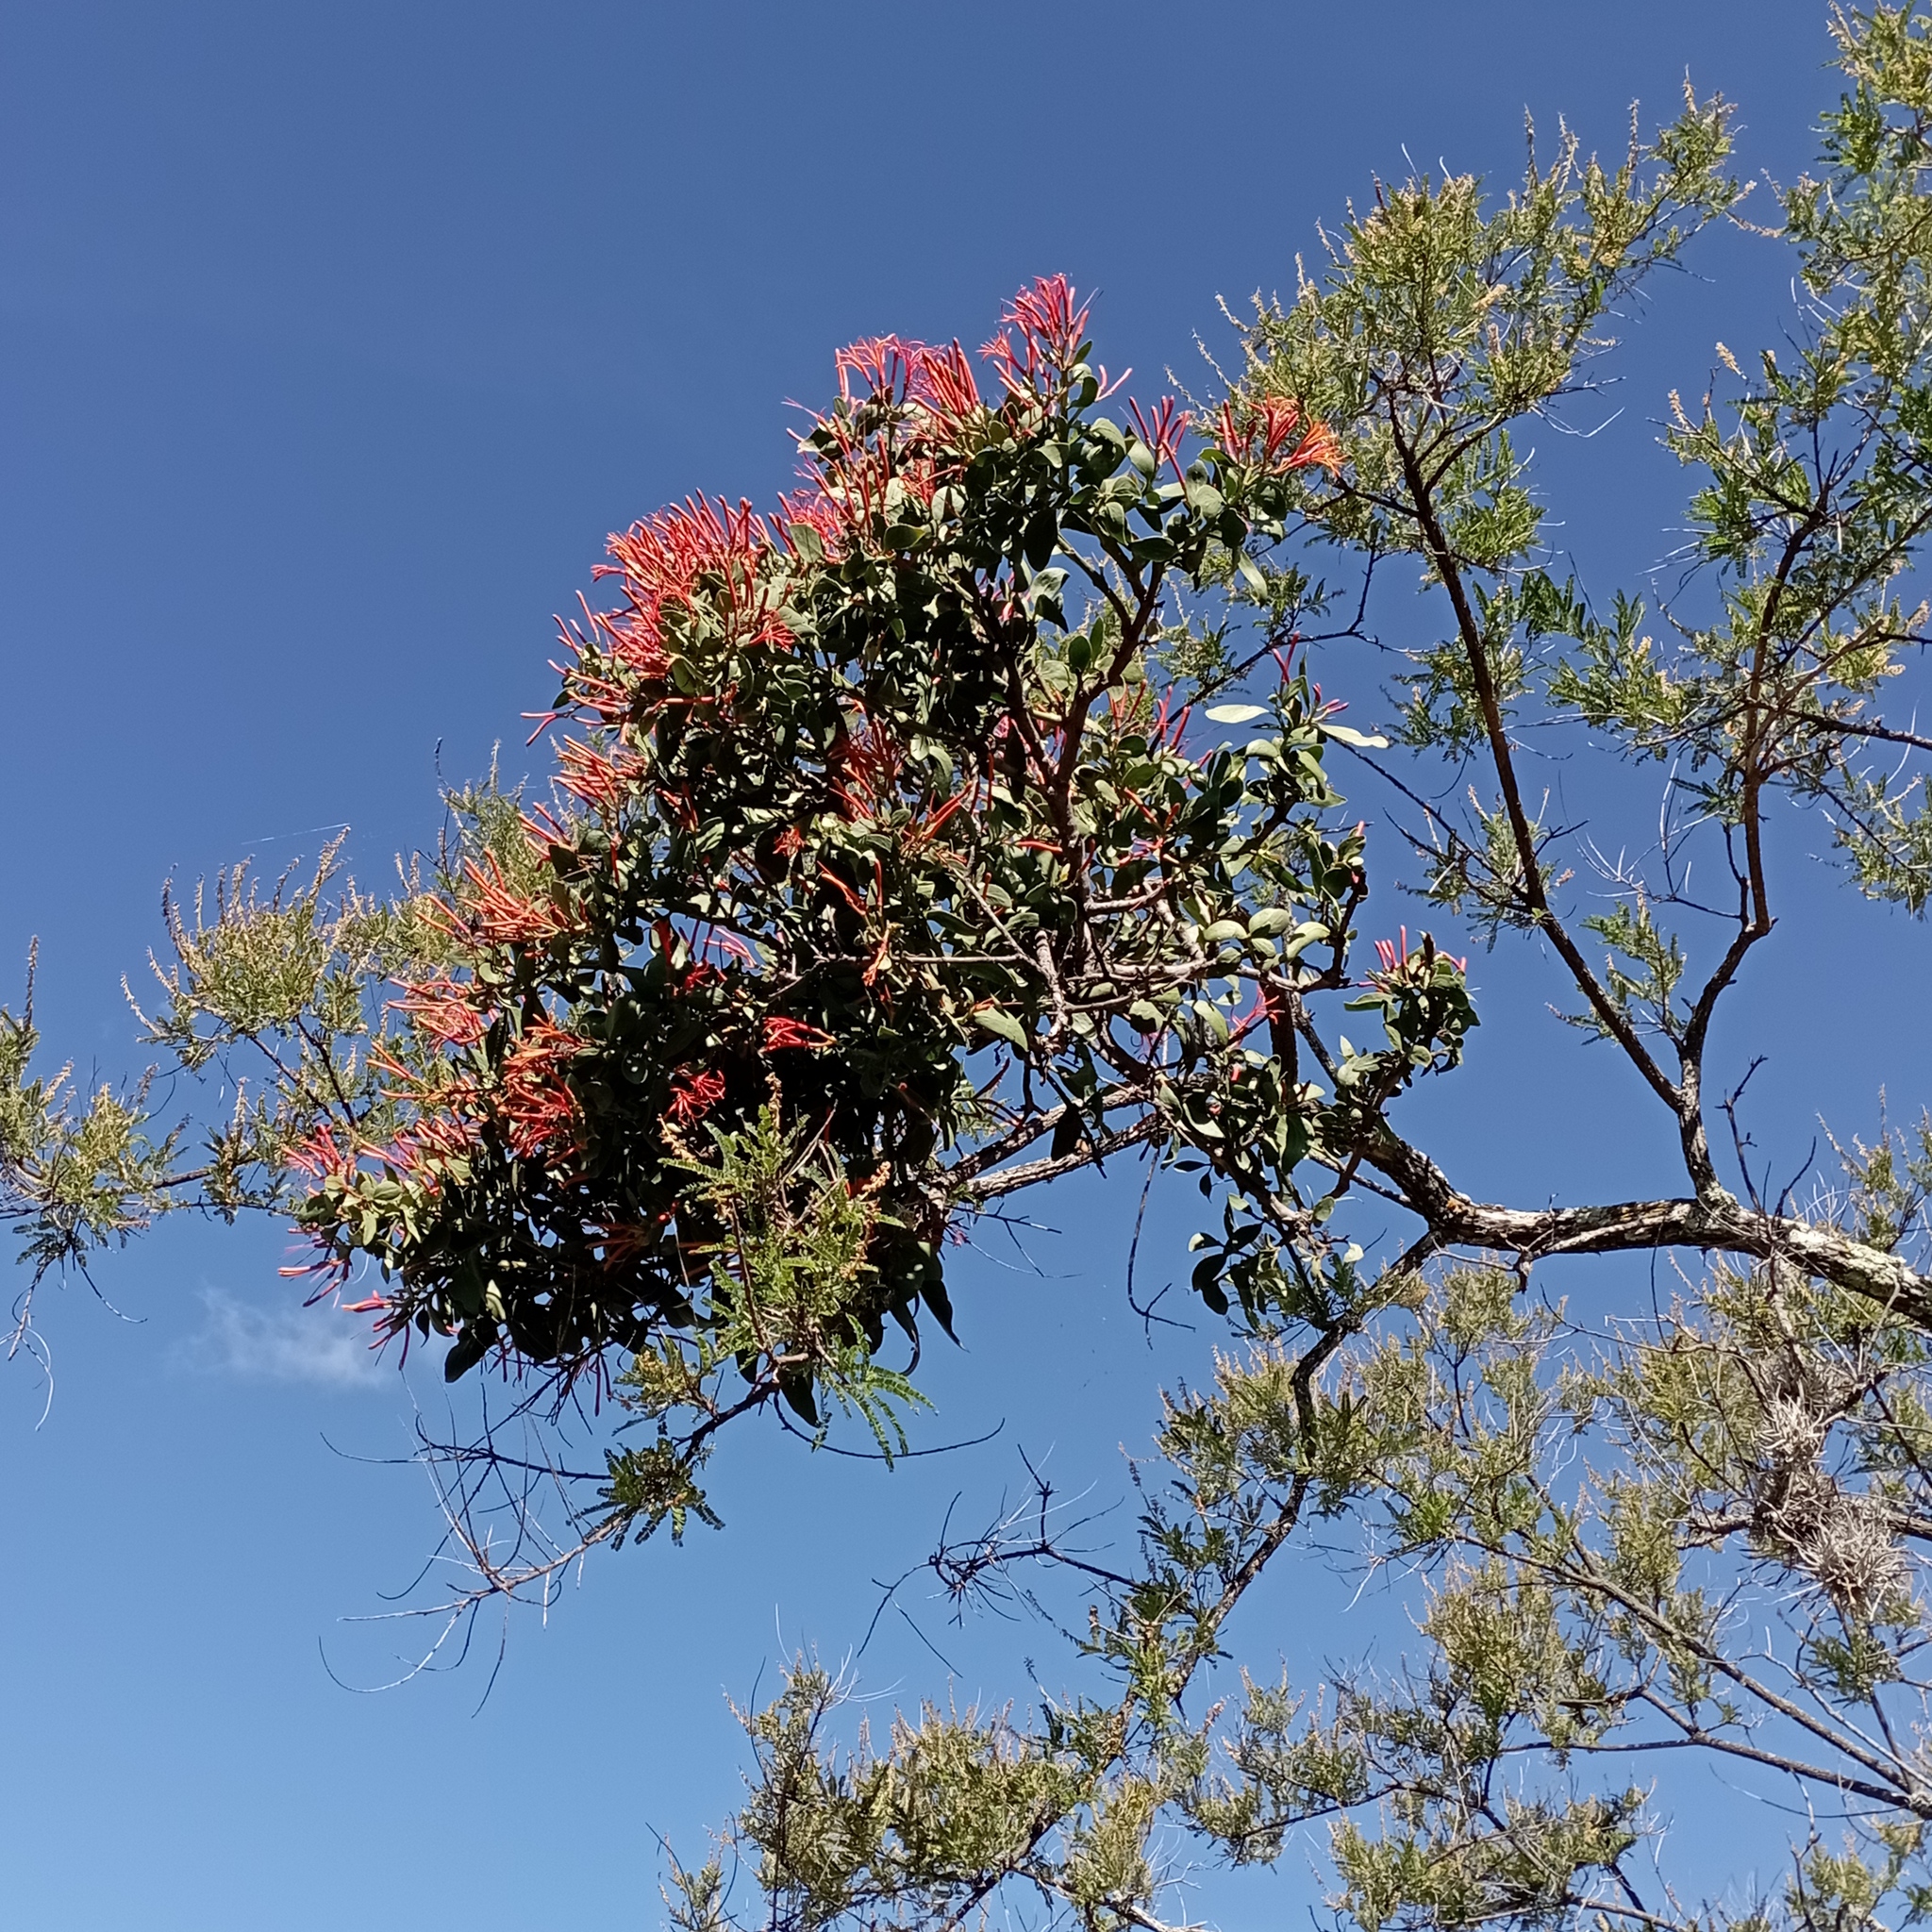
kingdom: Plantae
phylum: Tracheophyta
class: Magnoliopsida
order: Santalales
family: Loranthaceae
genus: Psittacanthus
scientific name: Psittacanthus calyculatus
